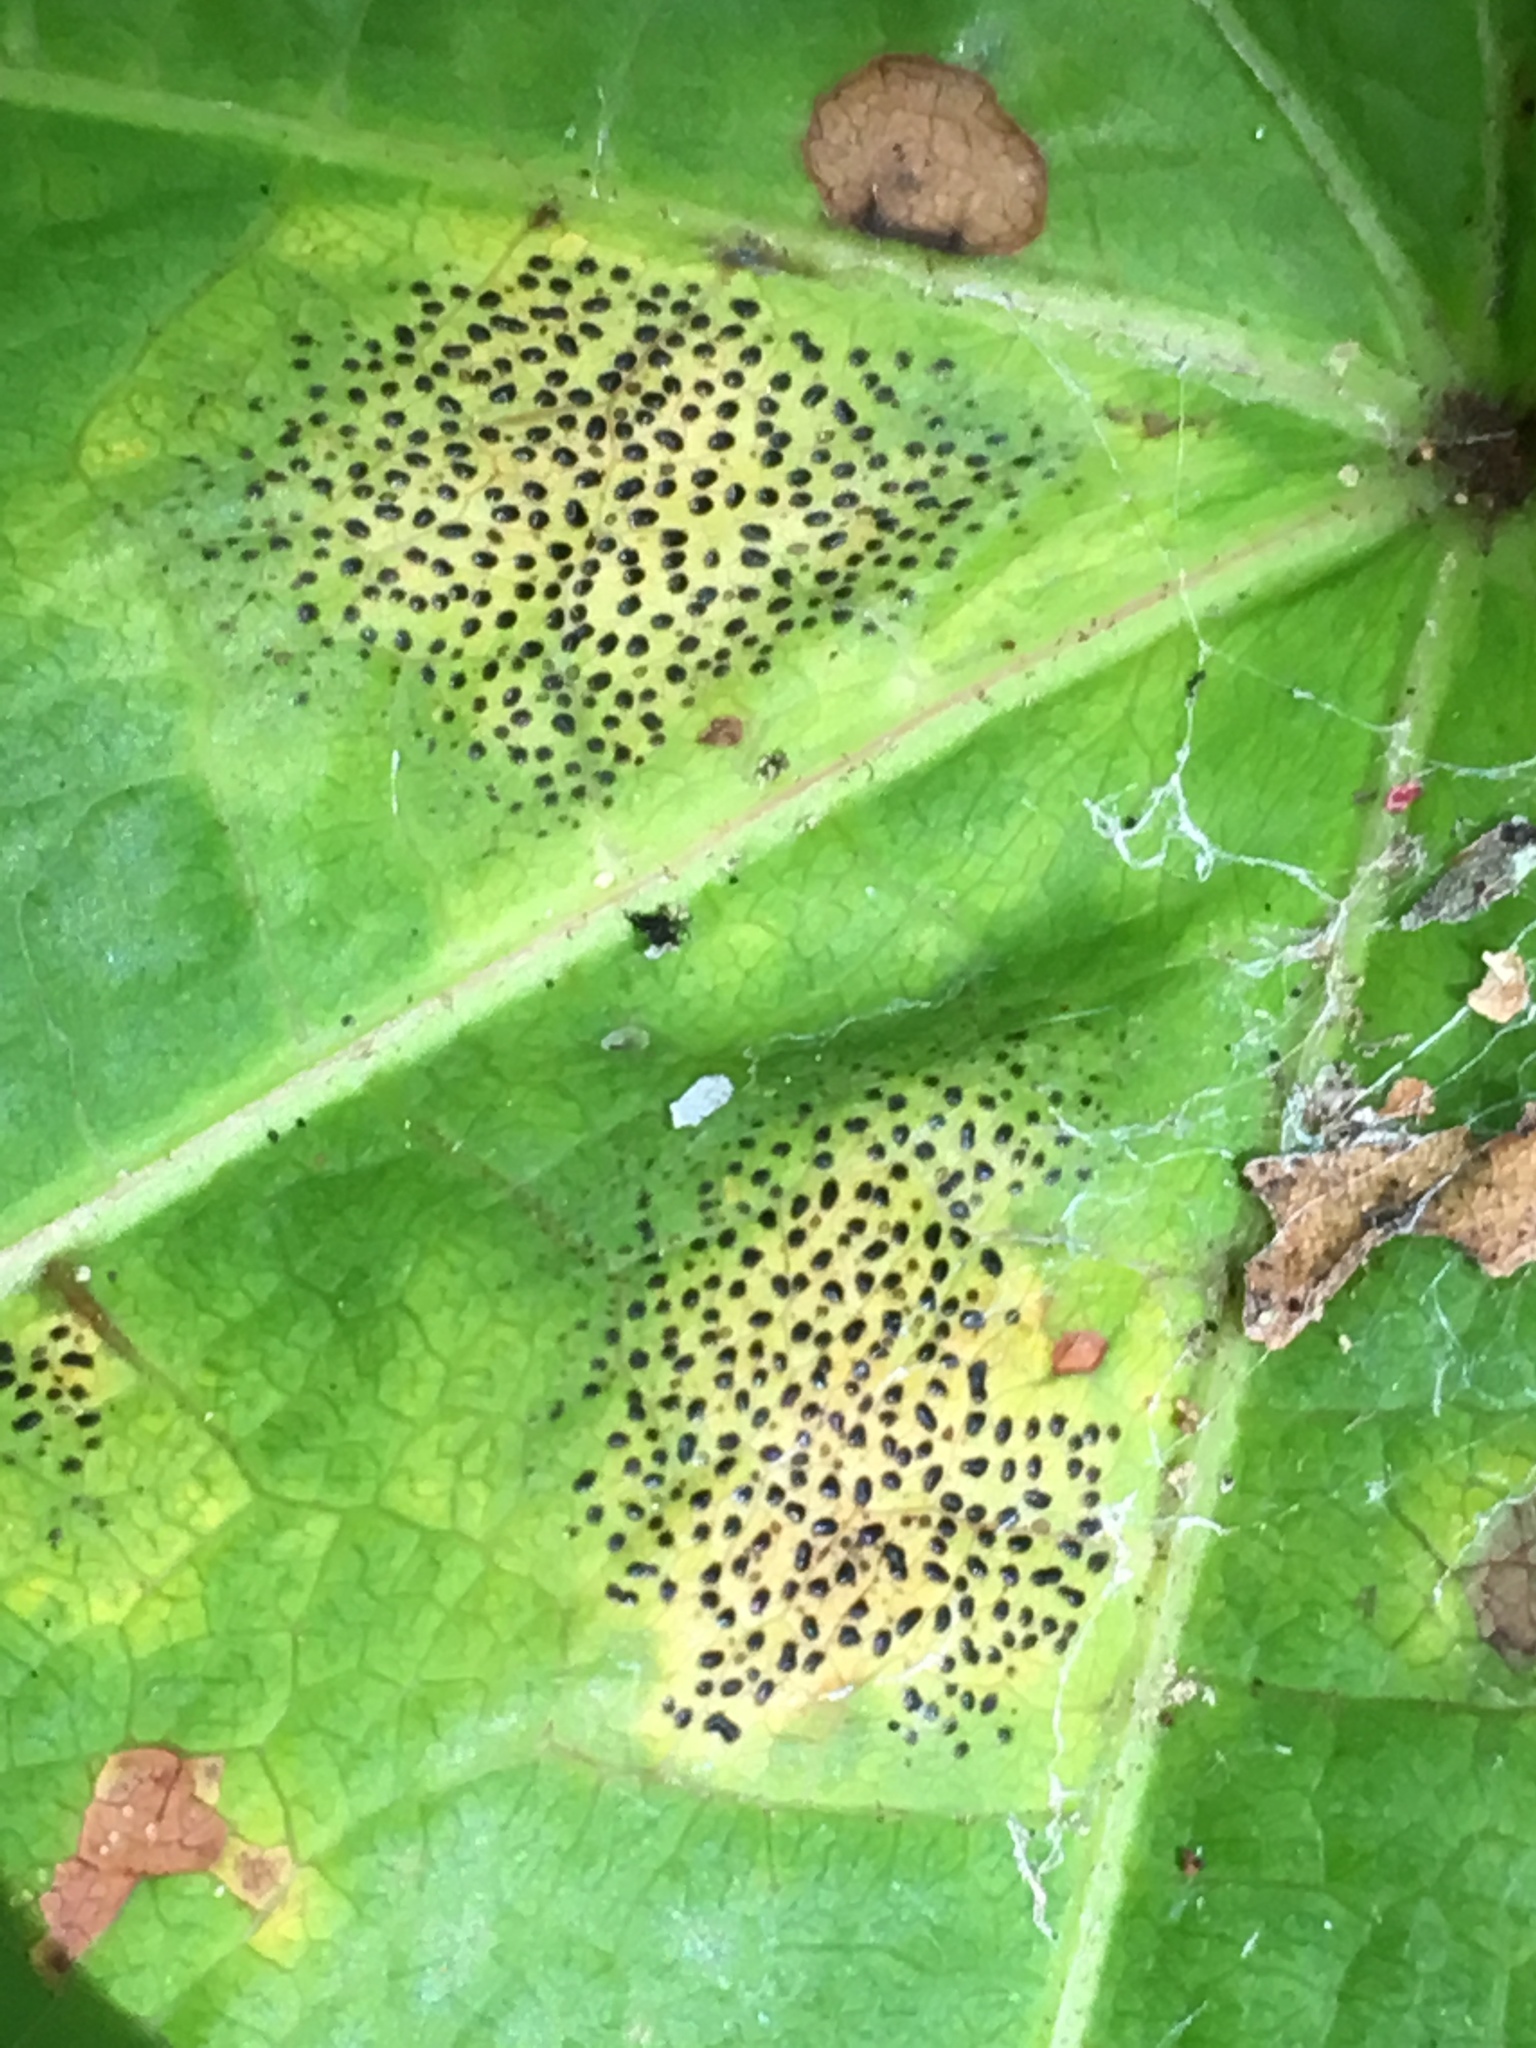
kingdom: Fungi
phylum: Ascomycota
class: Leotiomycetes
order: Rhytismatales
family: Rhytismataceae
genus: Rhytisma
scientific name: Rhytisma punctatum
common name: Speckled tar spot
